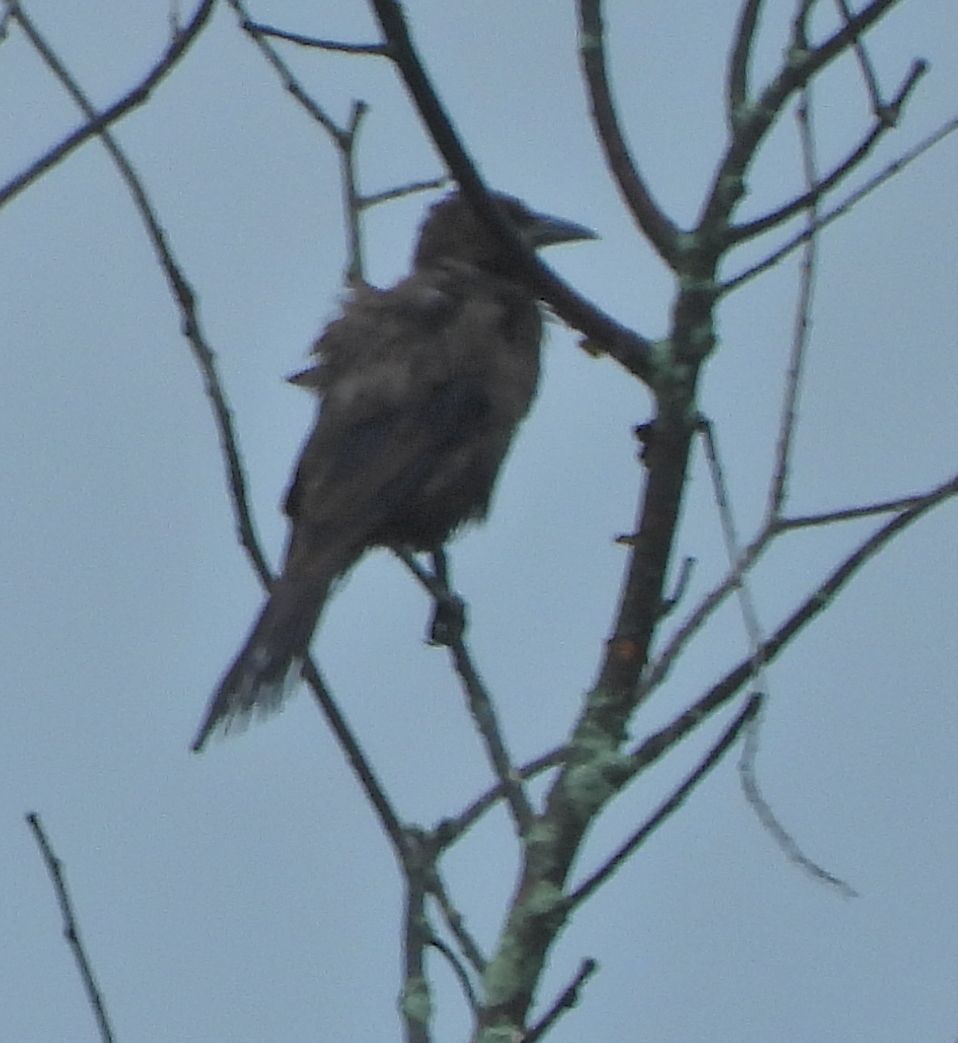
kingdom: Animalia
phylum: Chordata
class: Aves
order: Passeriformes
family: Icteridae
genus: Quiscalus
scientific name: Quiscalus quiscula
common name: Common grackle
